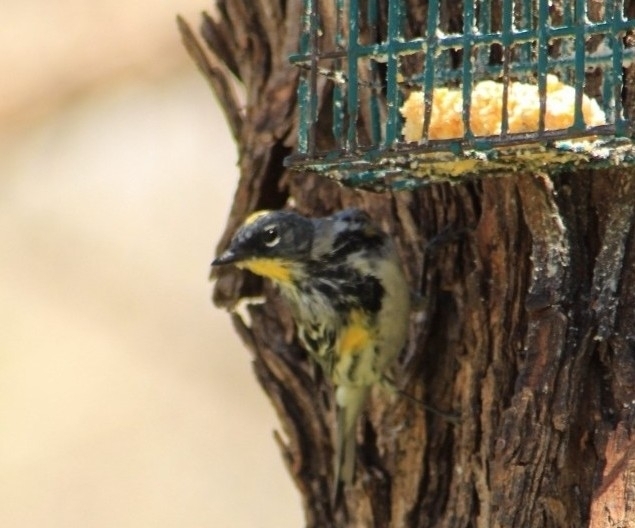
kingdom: Animalia
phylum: Chordata
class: Aves
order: Passeriformes
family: Parulidae
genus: Setophaga
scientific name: Setophaga coronata
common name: Myrtle warbler
